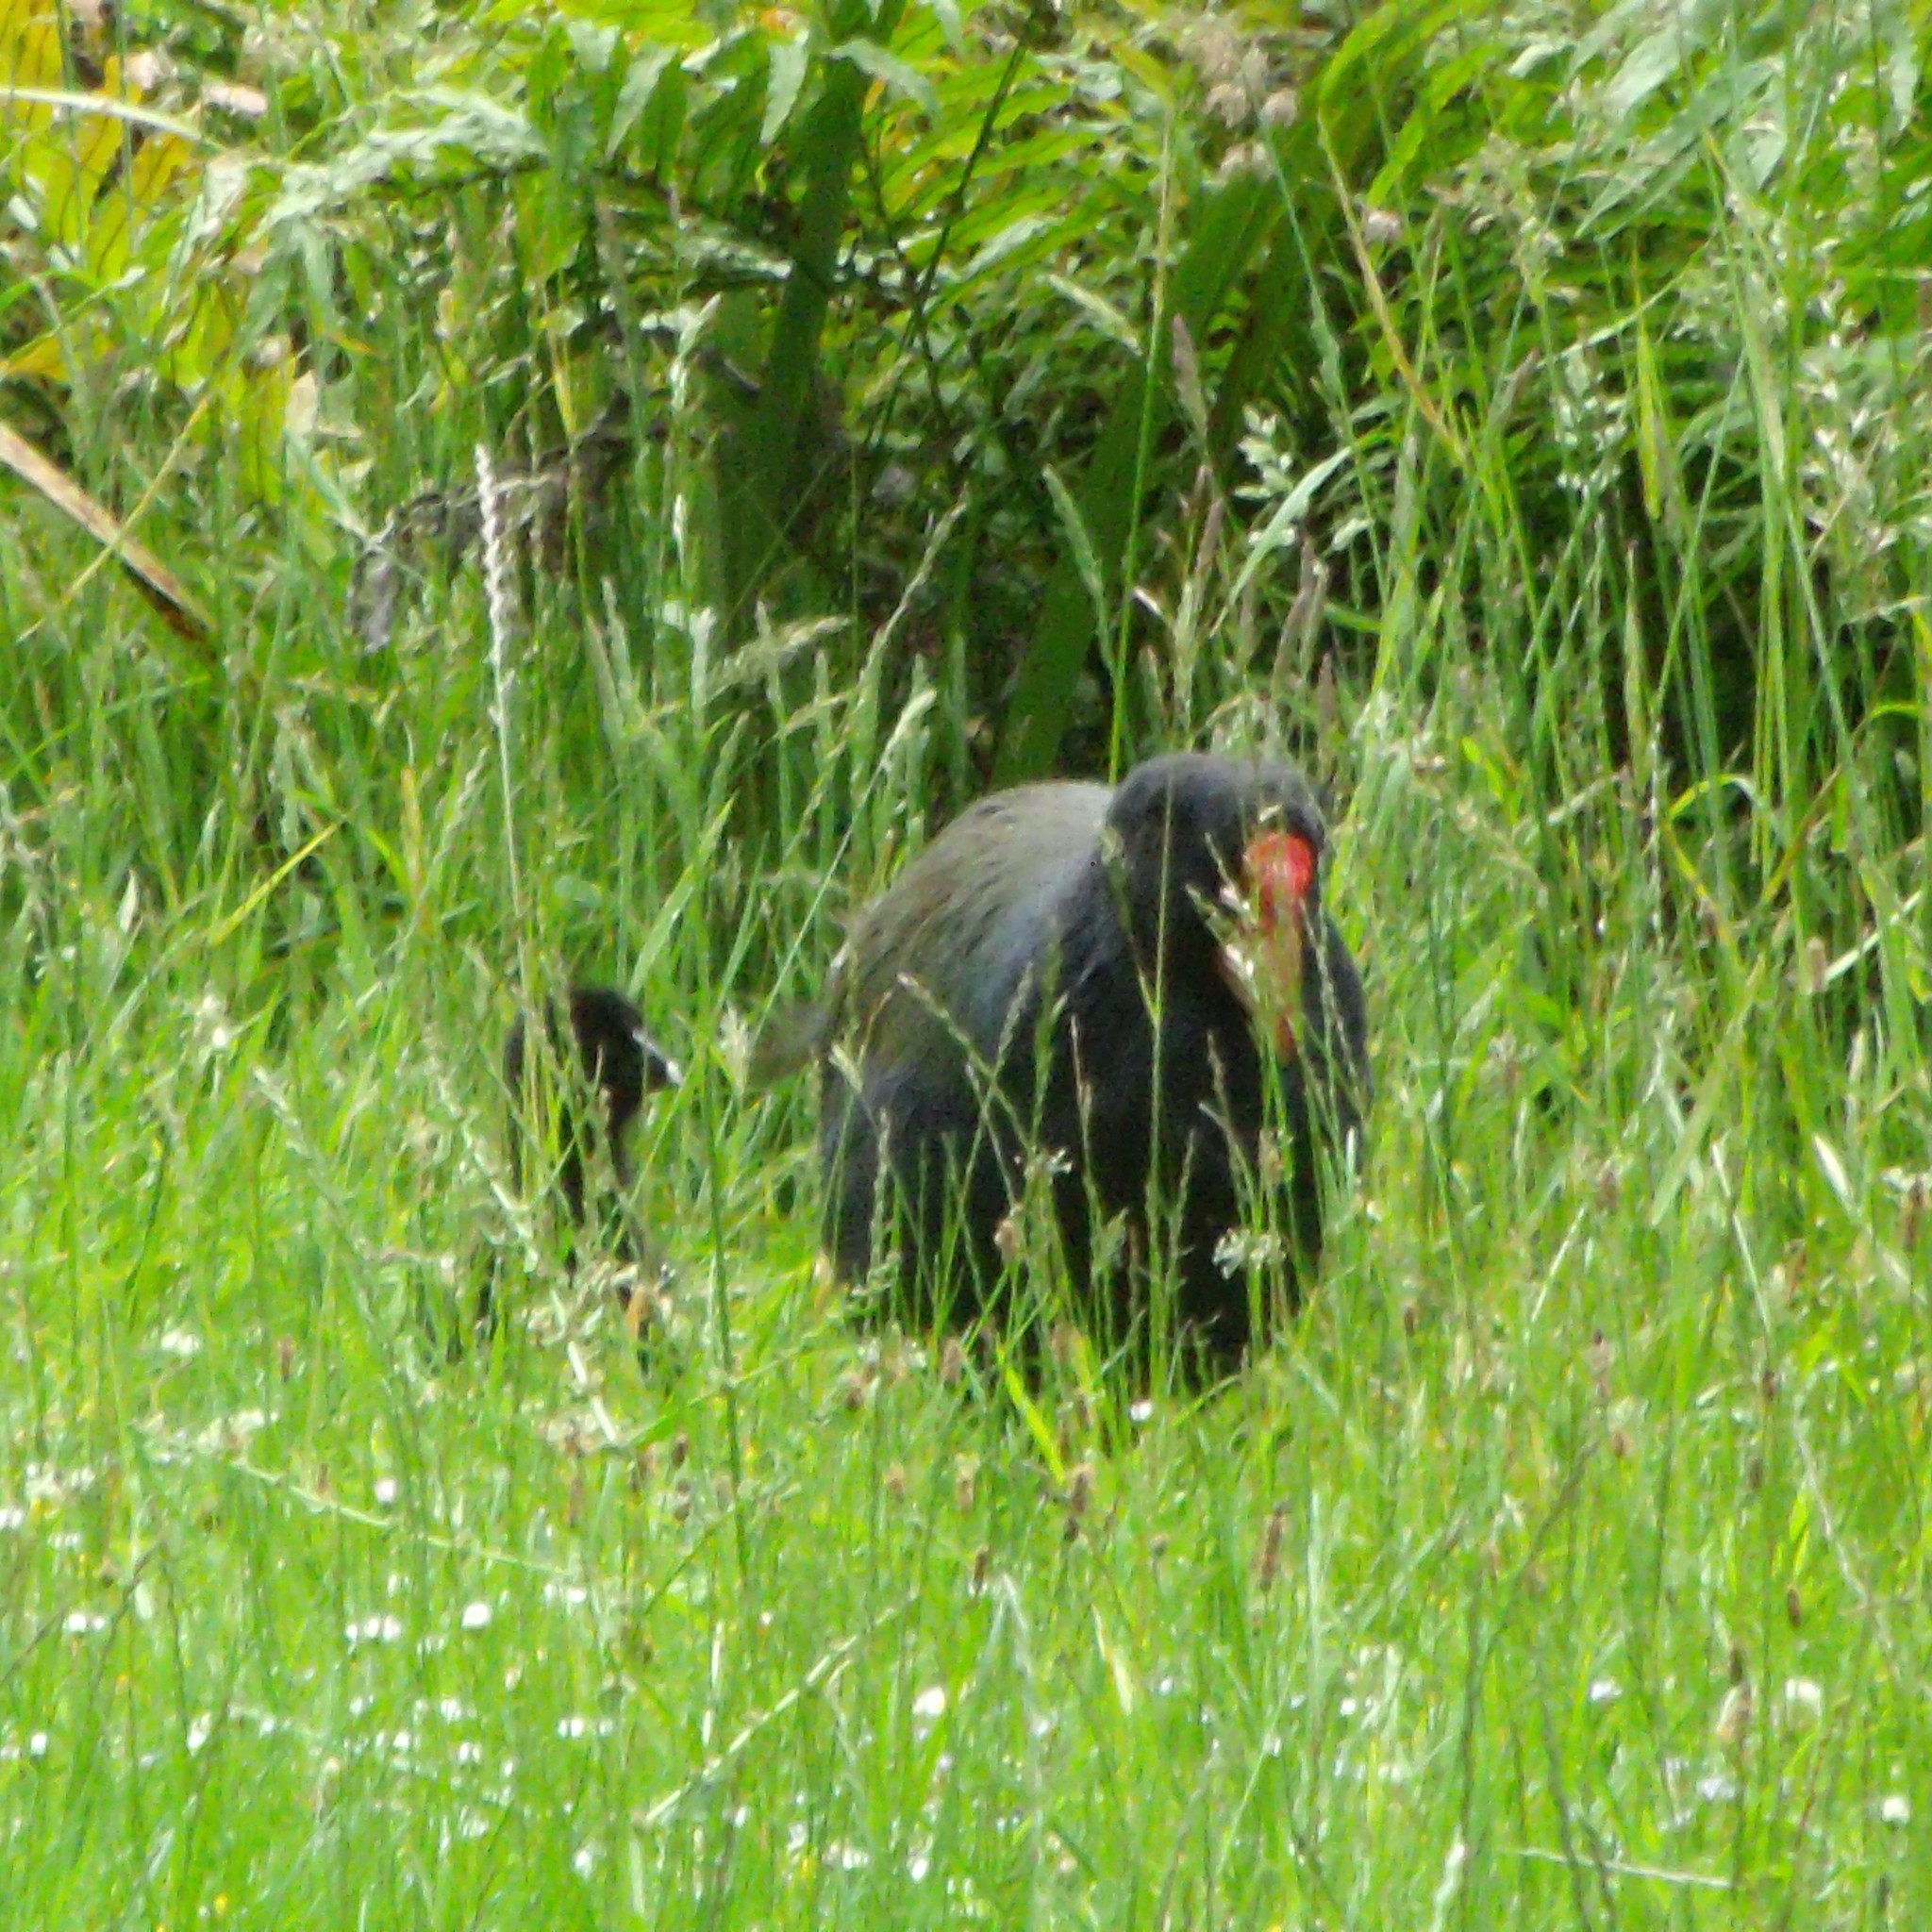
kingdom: Animalia
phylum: Chordata
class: Aves
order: Gruiformes
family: Rallidae
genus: Porphyrio
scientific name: Porphyrio hochstetteri
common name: South island takahe
